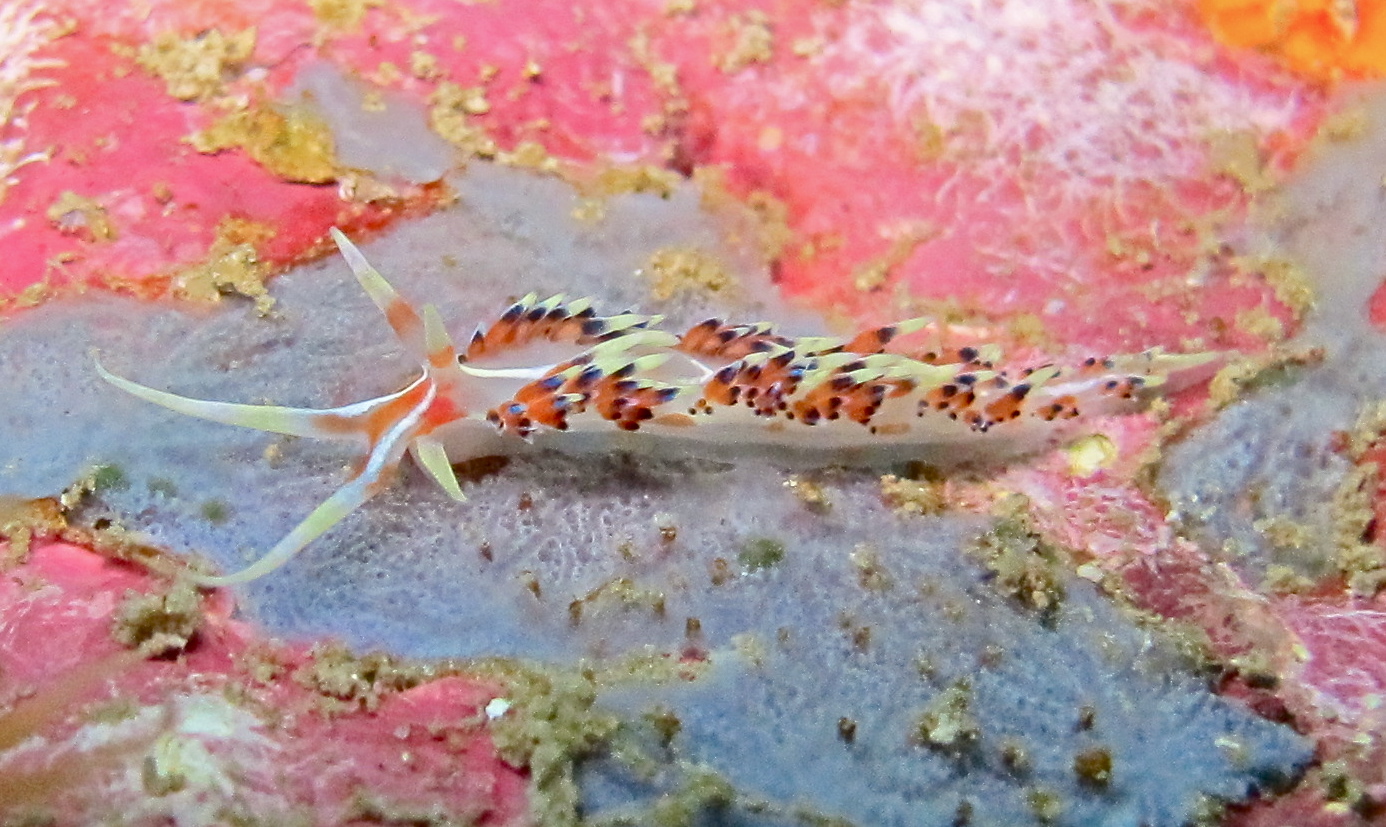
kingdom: Animalia
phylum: Mollusca
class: Gastropoda
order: Nudibranchia
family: Facelinidae
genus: Caloria
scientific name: Caloria indica
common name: Sea slug
